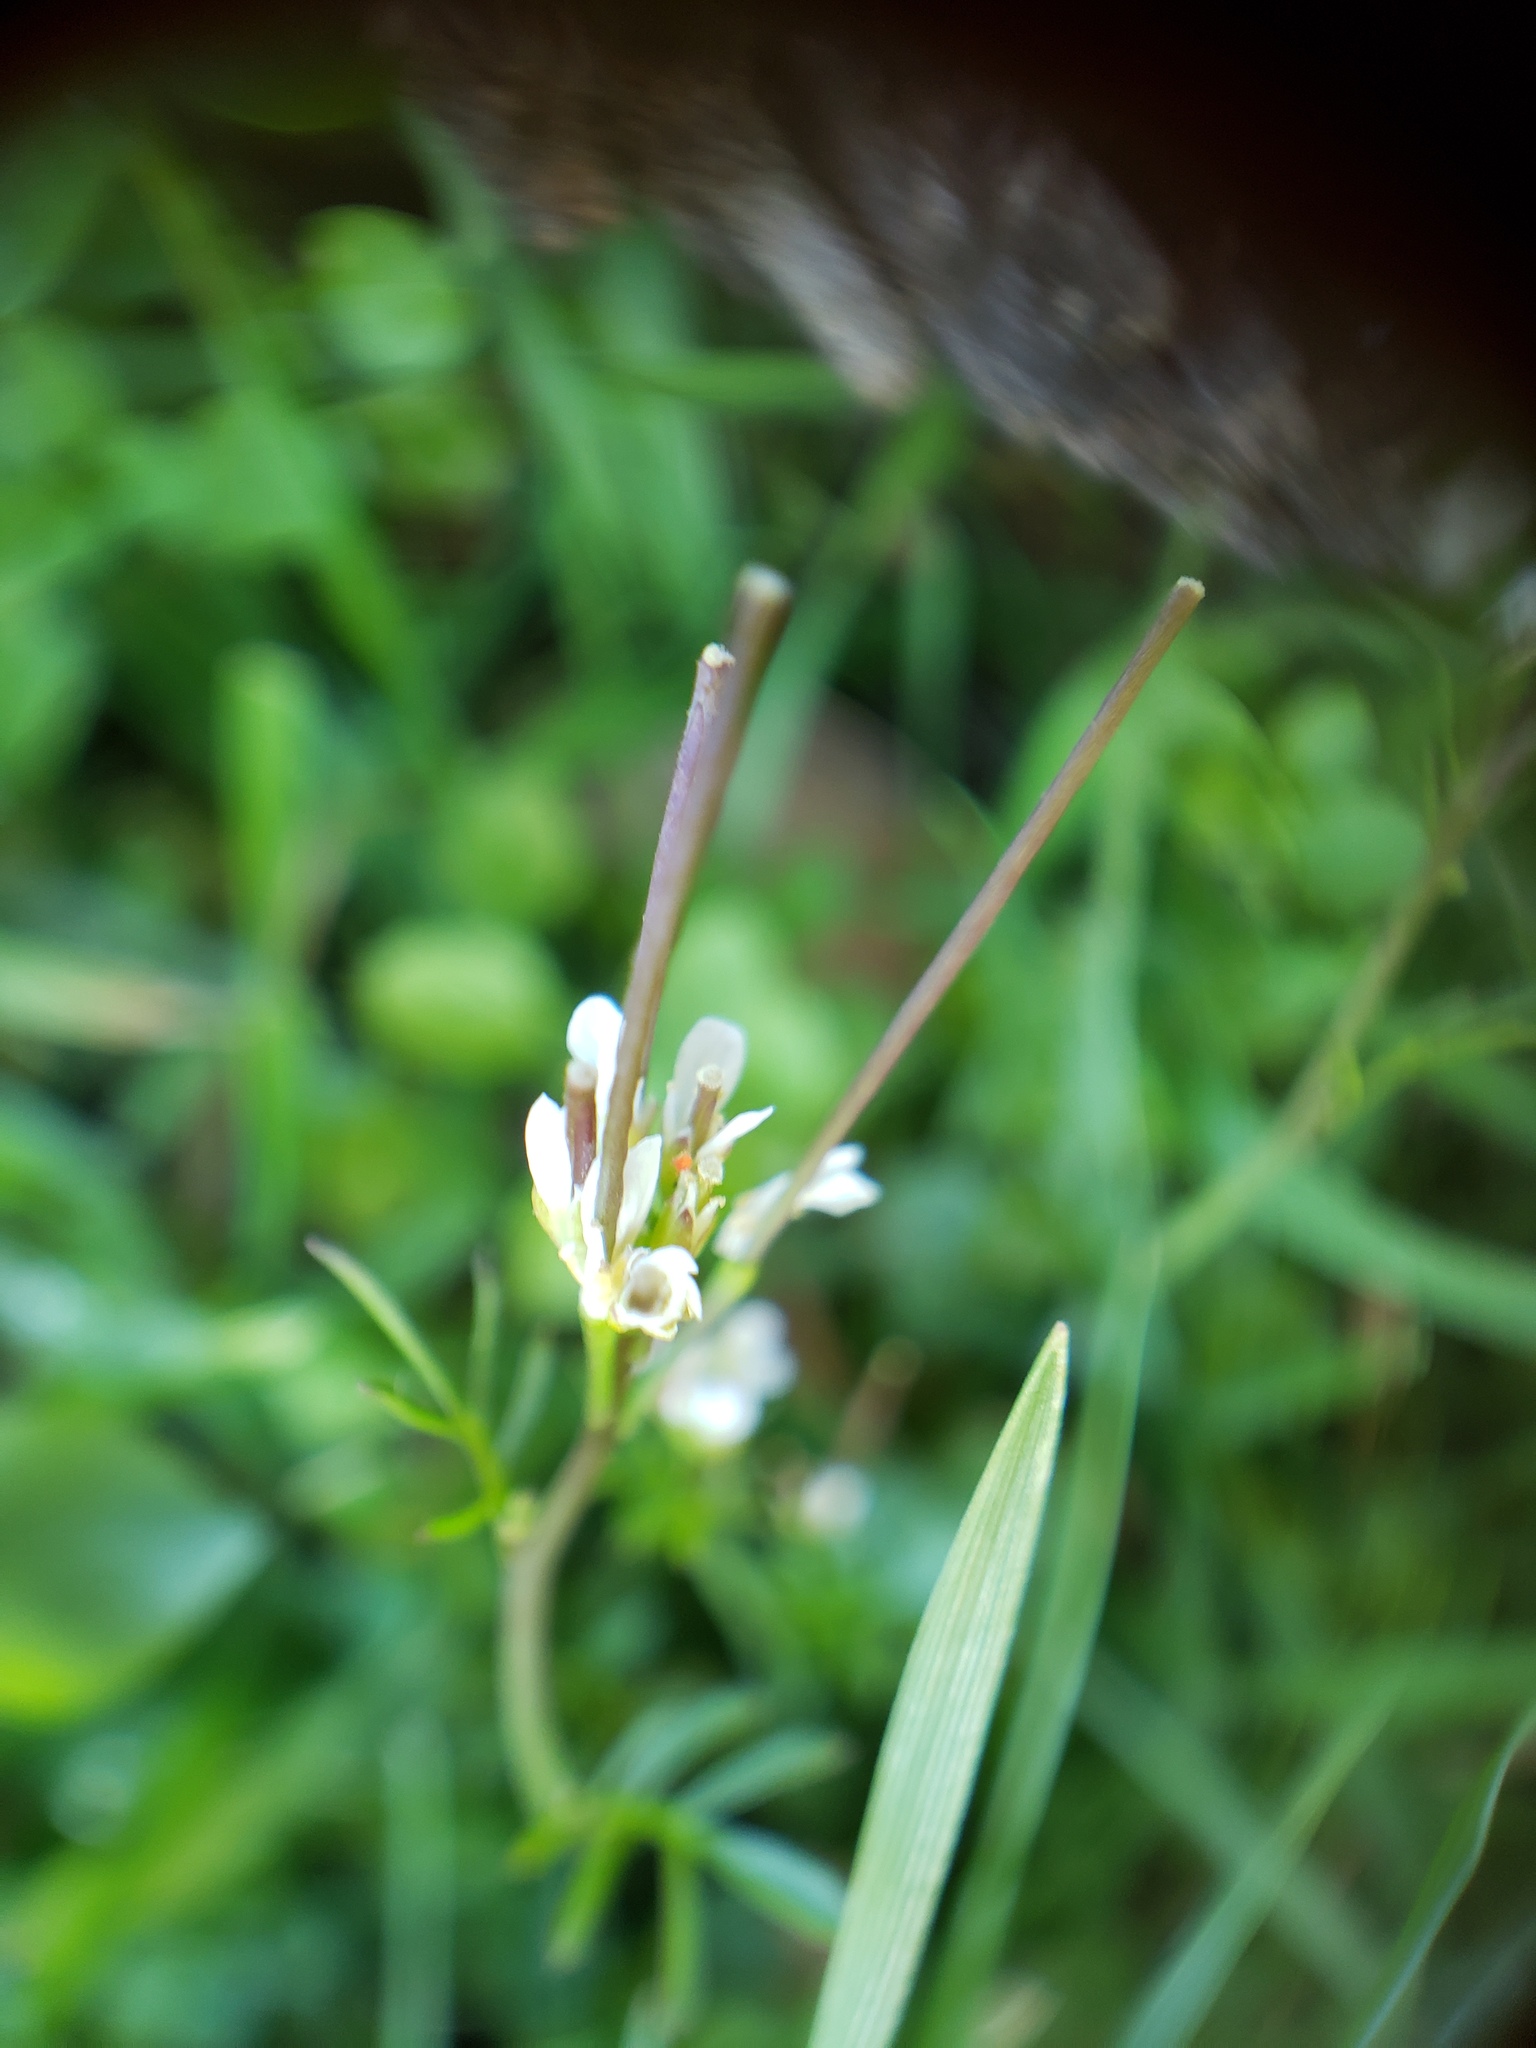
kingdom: Plantae
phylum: Tracheophyta
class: Magnoliopsida
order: Brassicales
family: Brassicaceae
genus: Cardamine
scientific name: Cardamine hirsuta
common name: Hairy bittercress
